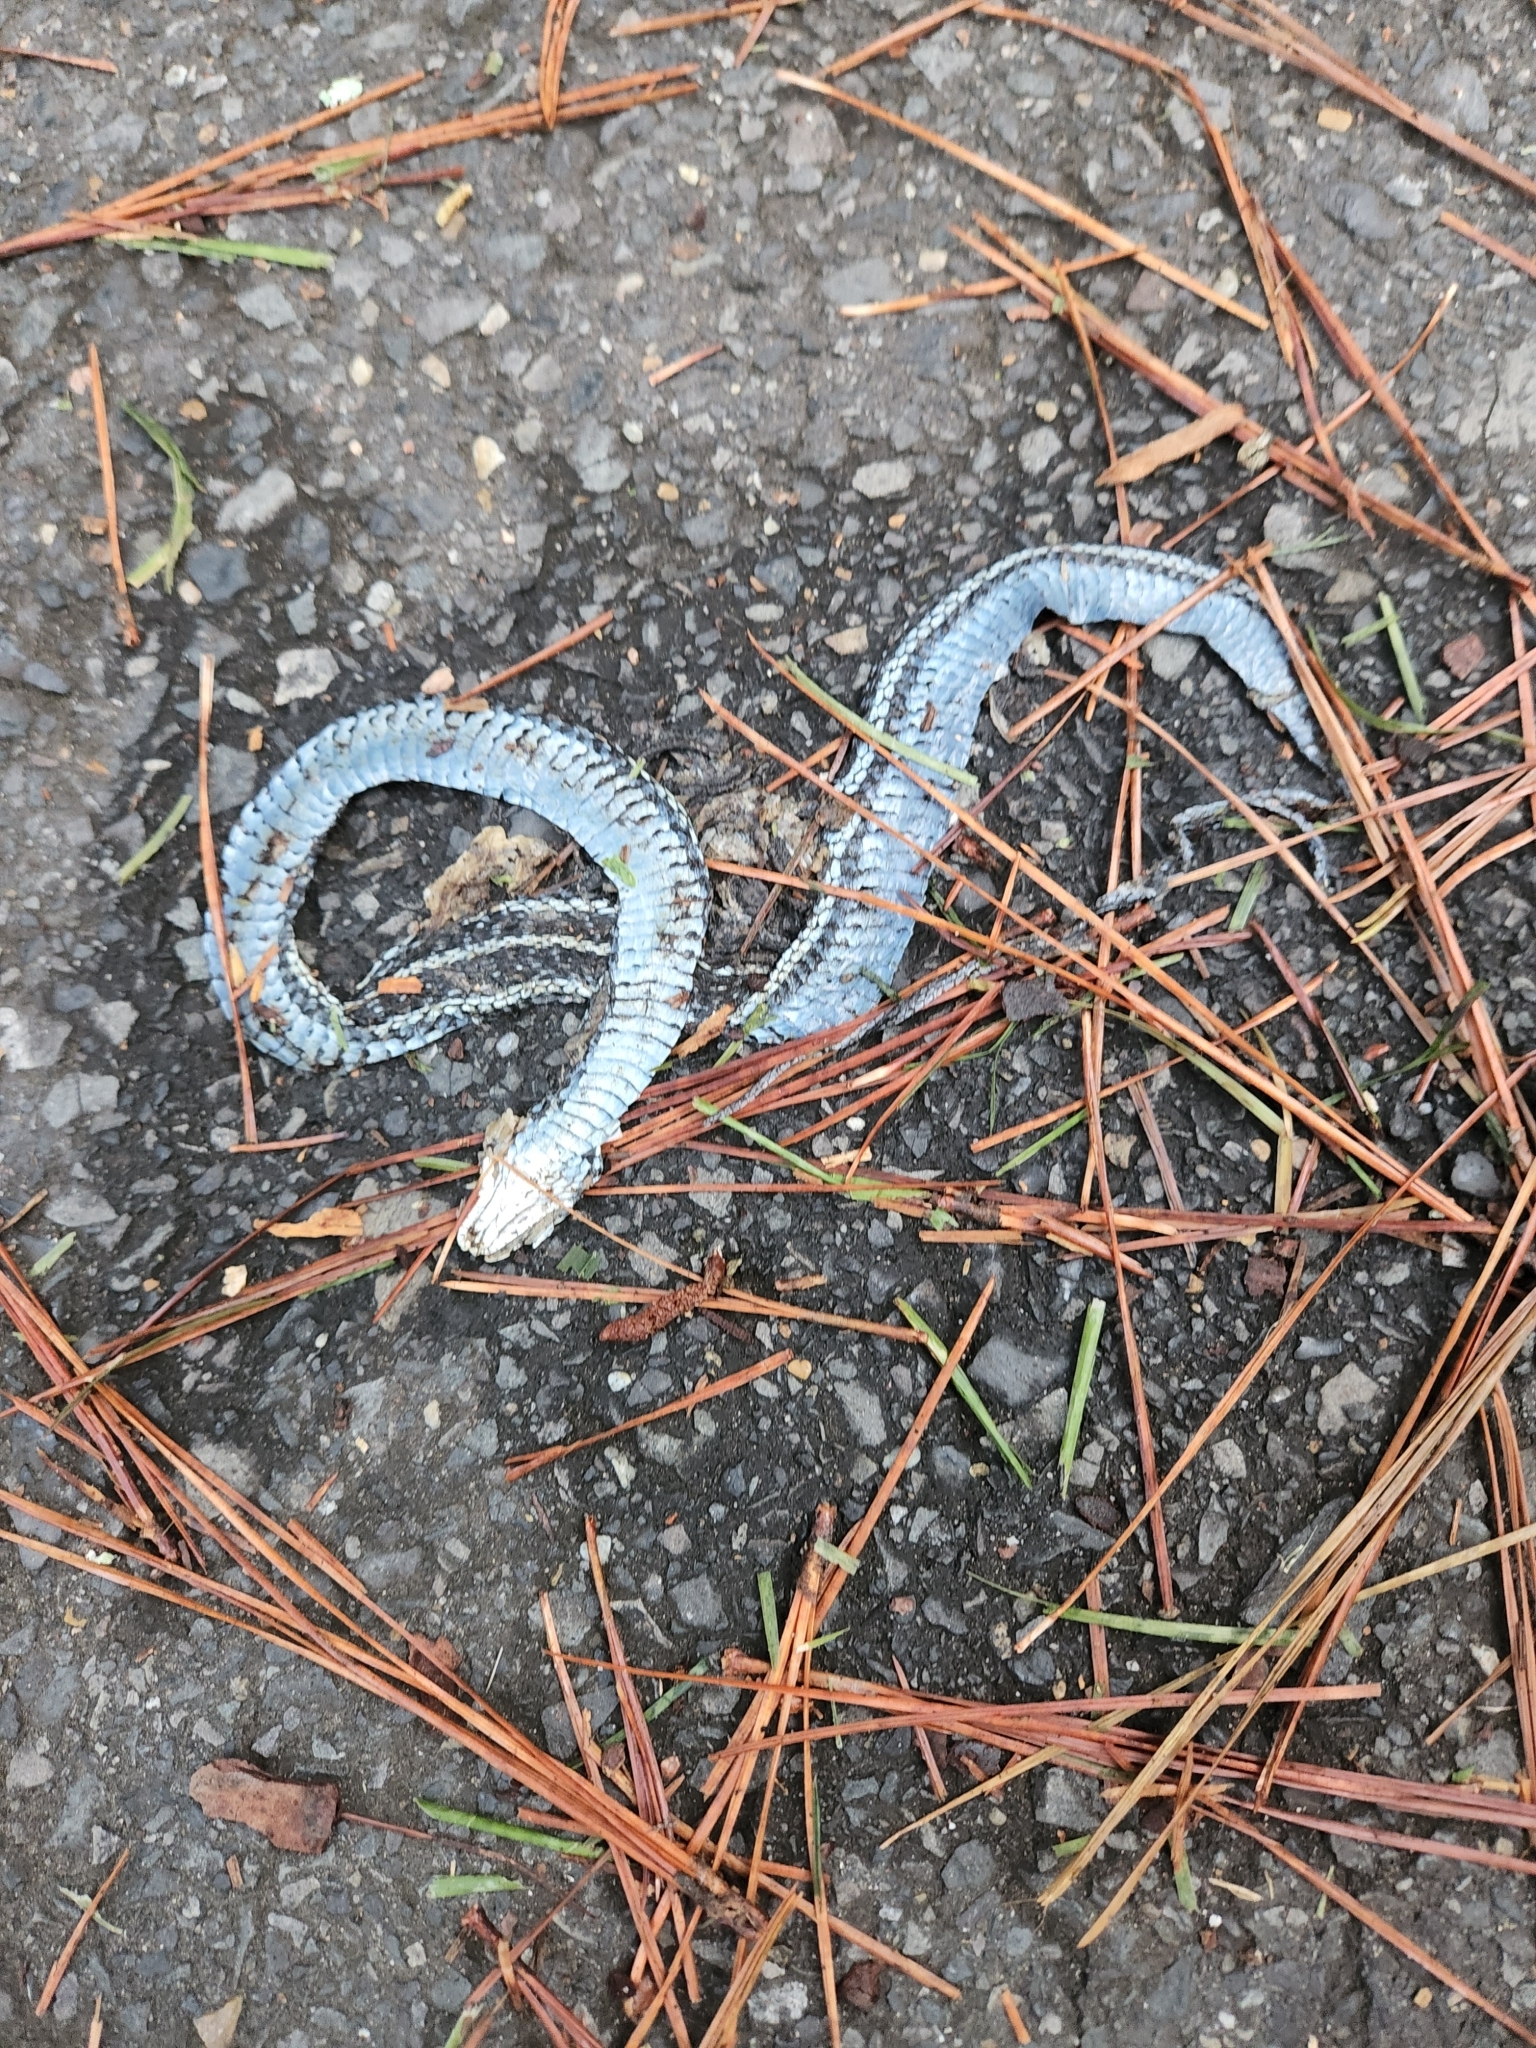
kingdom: Animalia
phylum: Chordata
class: Squamata
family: Colubridae
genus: Thamnophis
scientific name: Thamnophis sirtalis
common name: Common garter snake
